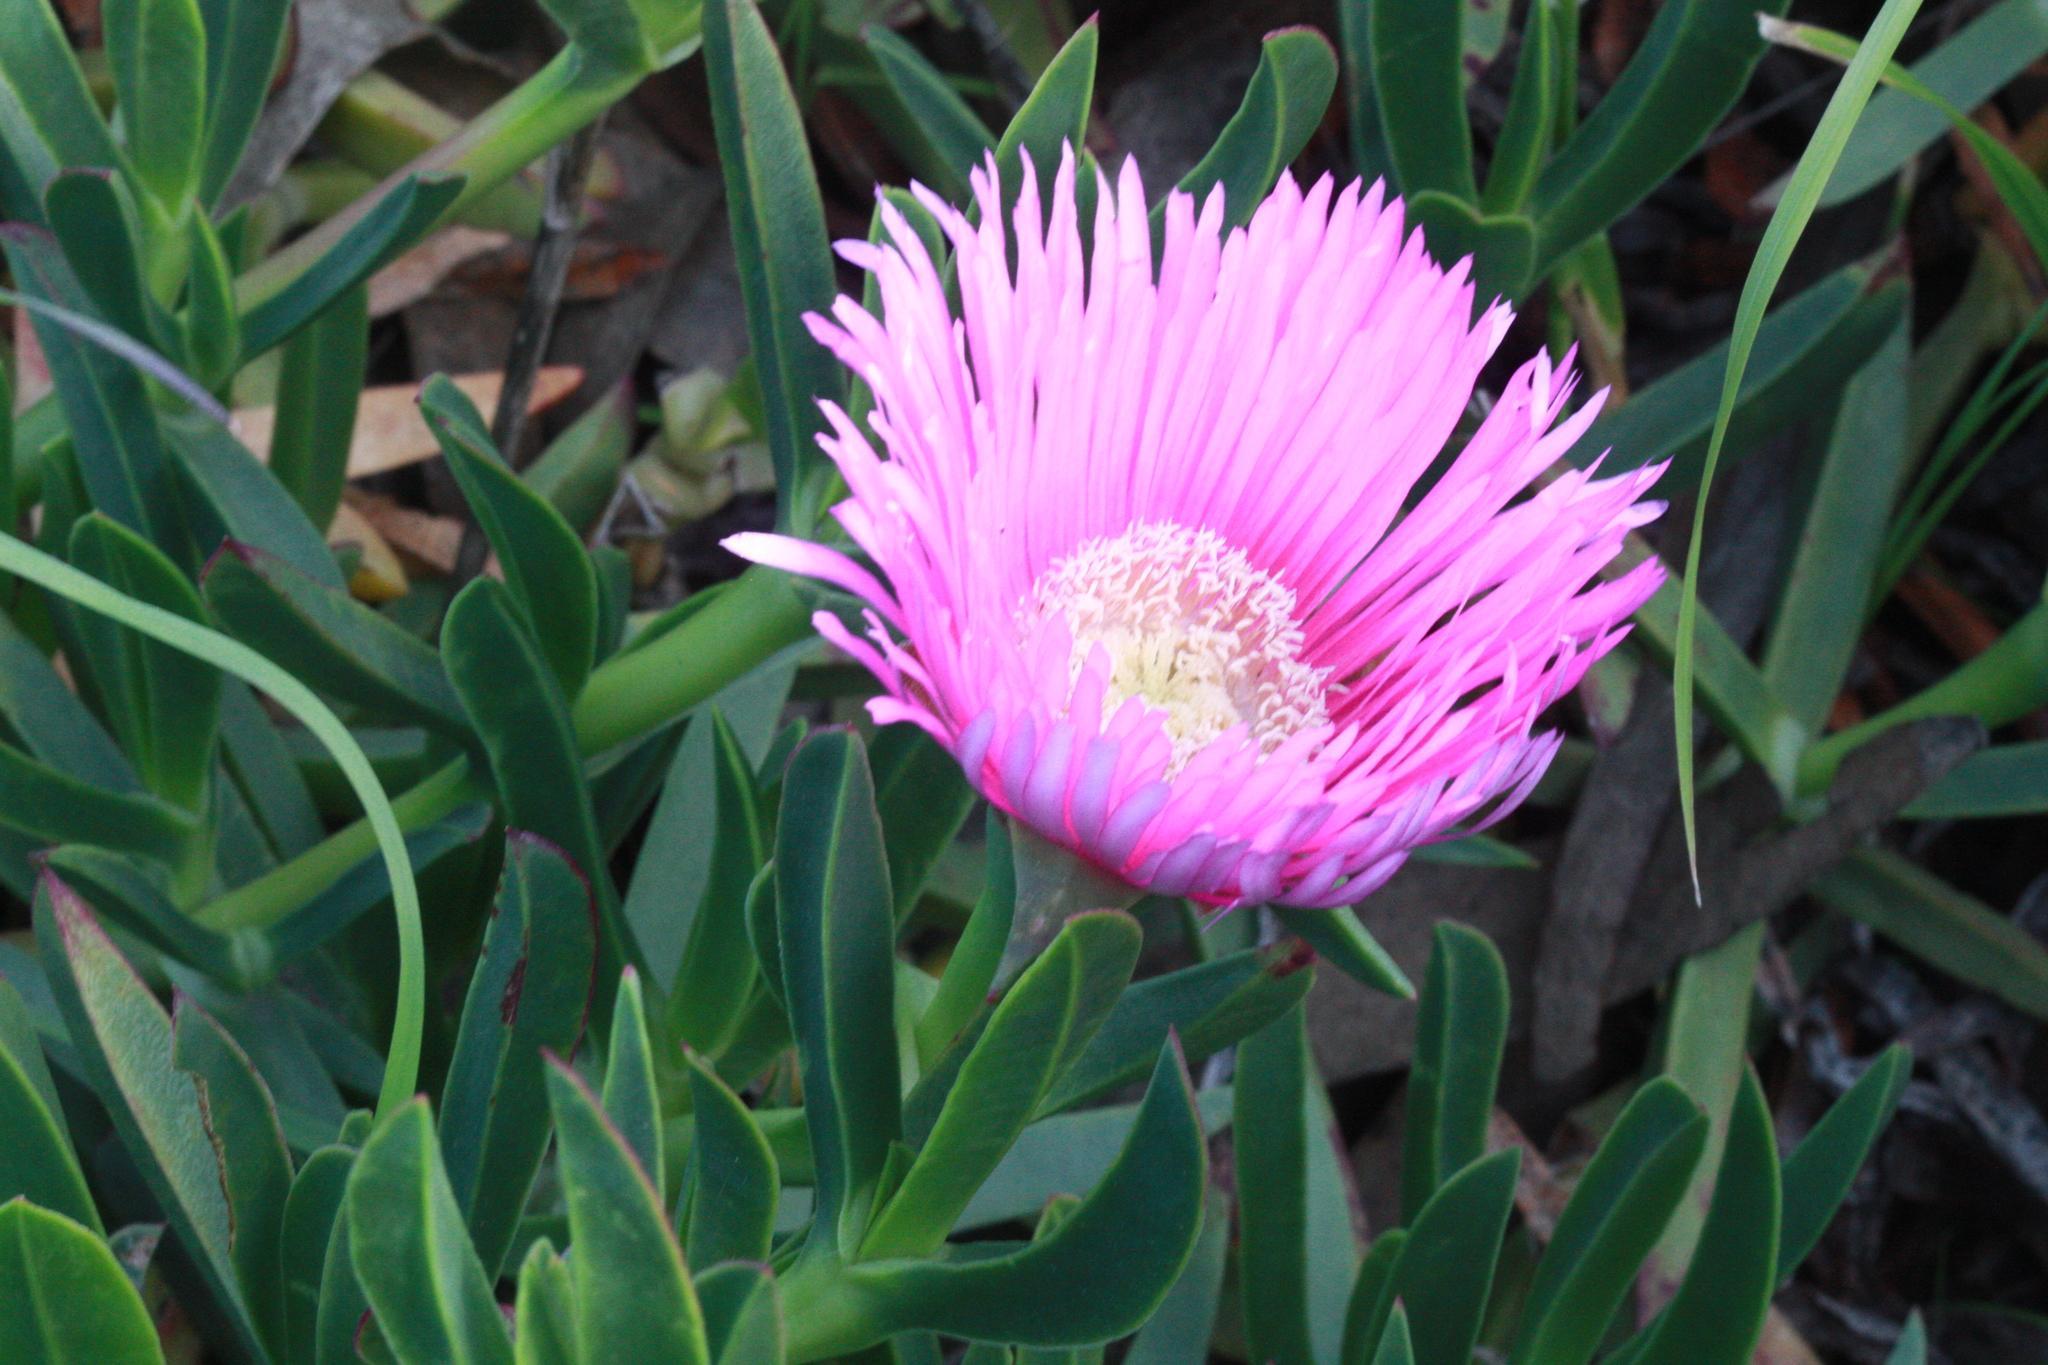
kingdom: Plantae
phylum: Tracheophyta
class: Magnoliopsida
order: Caryophyllales
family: Aizoaceae
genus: Carpobrotus
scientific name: Carpobrotus edulis
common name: Hottentot-fig
